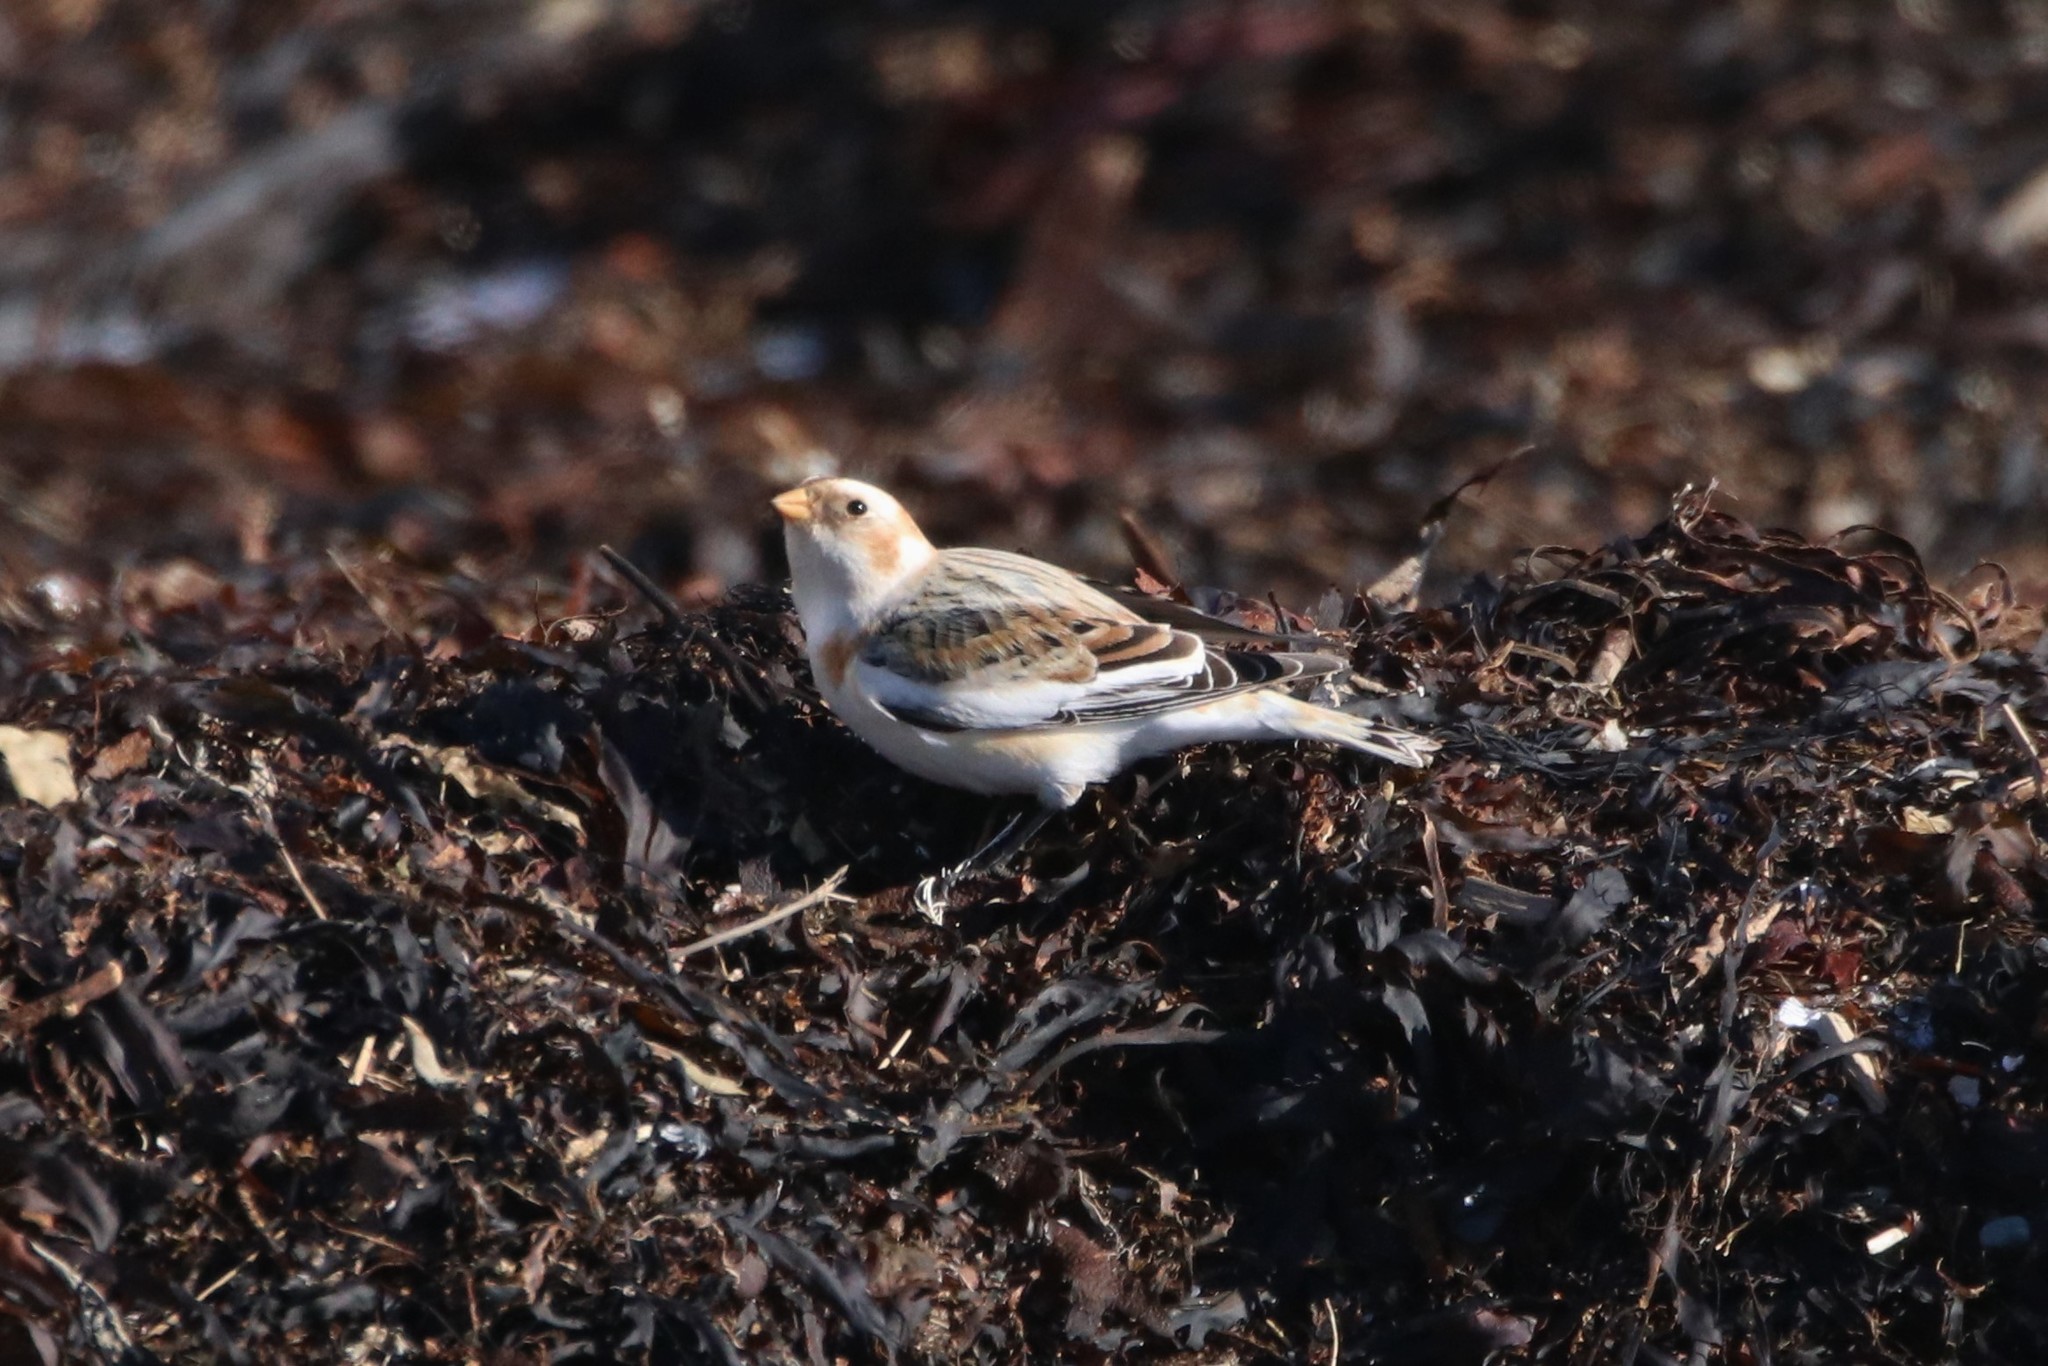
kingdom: Animalia
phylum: Chordata
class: Aves
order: Passeriformes
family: Calcariidae
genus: Plectrophenax
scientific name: Plectrophenax nivalis
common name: Snow bunting
